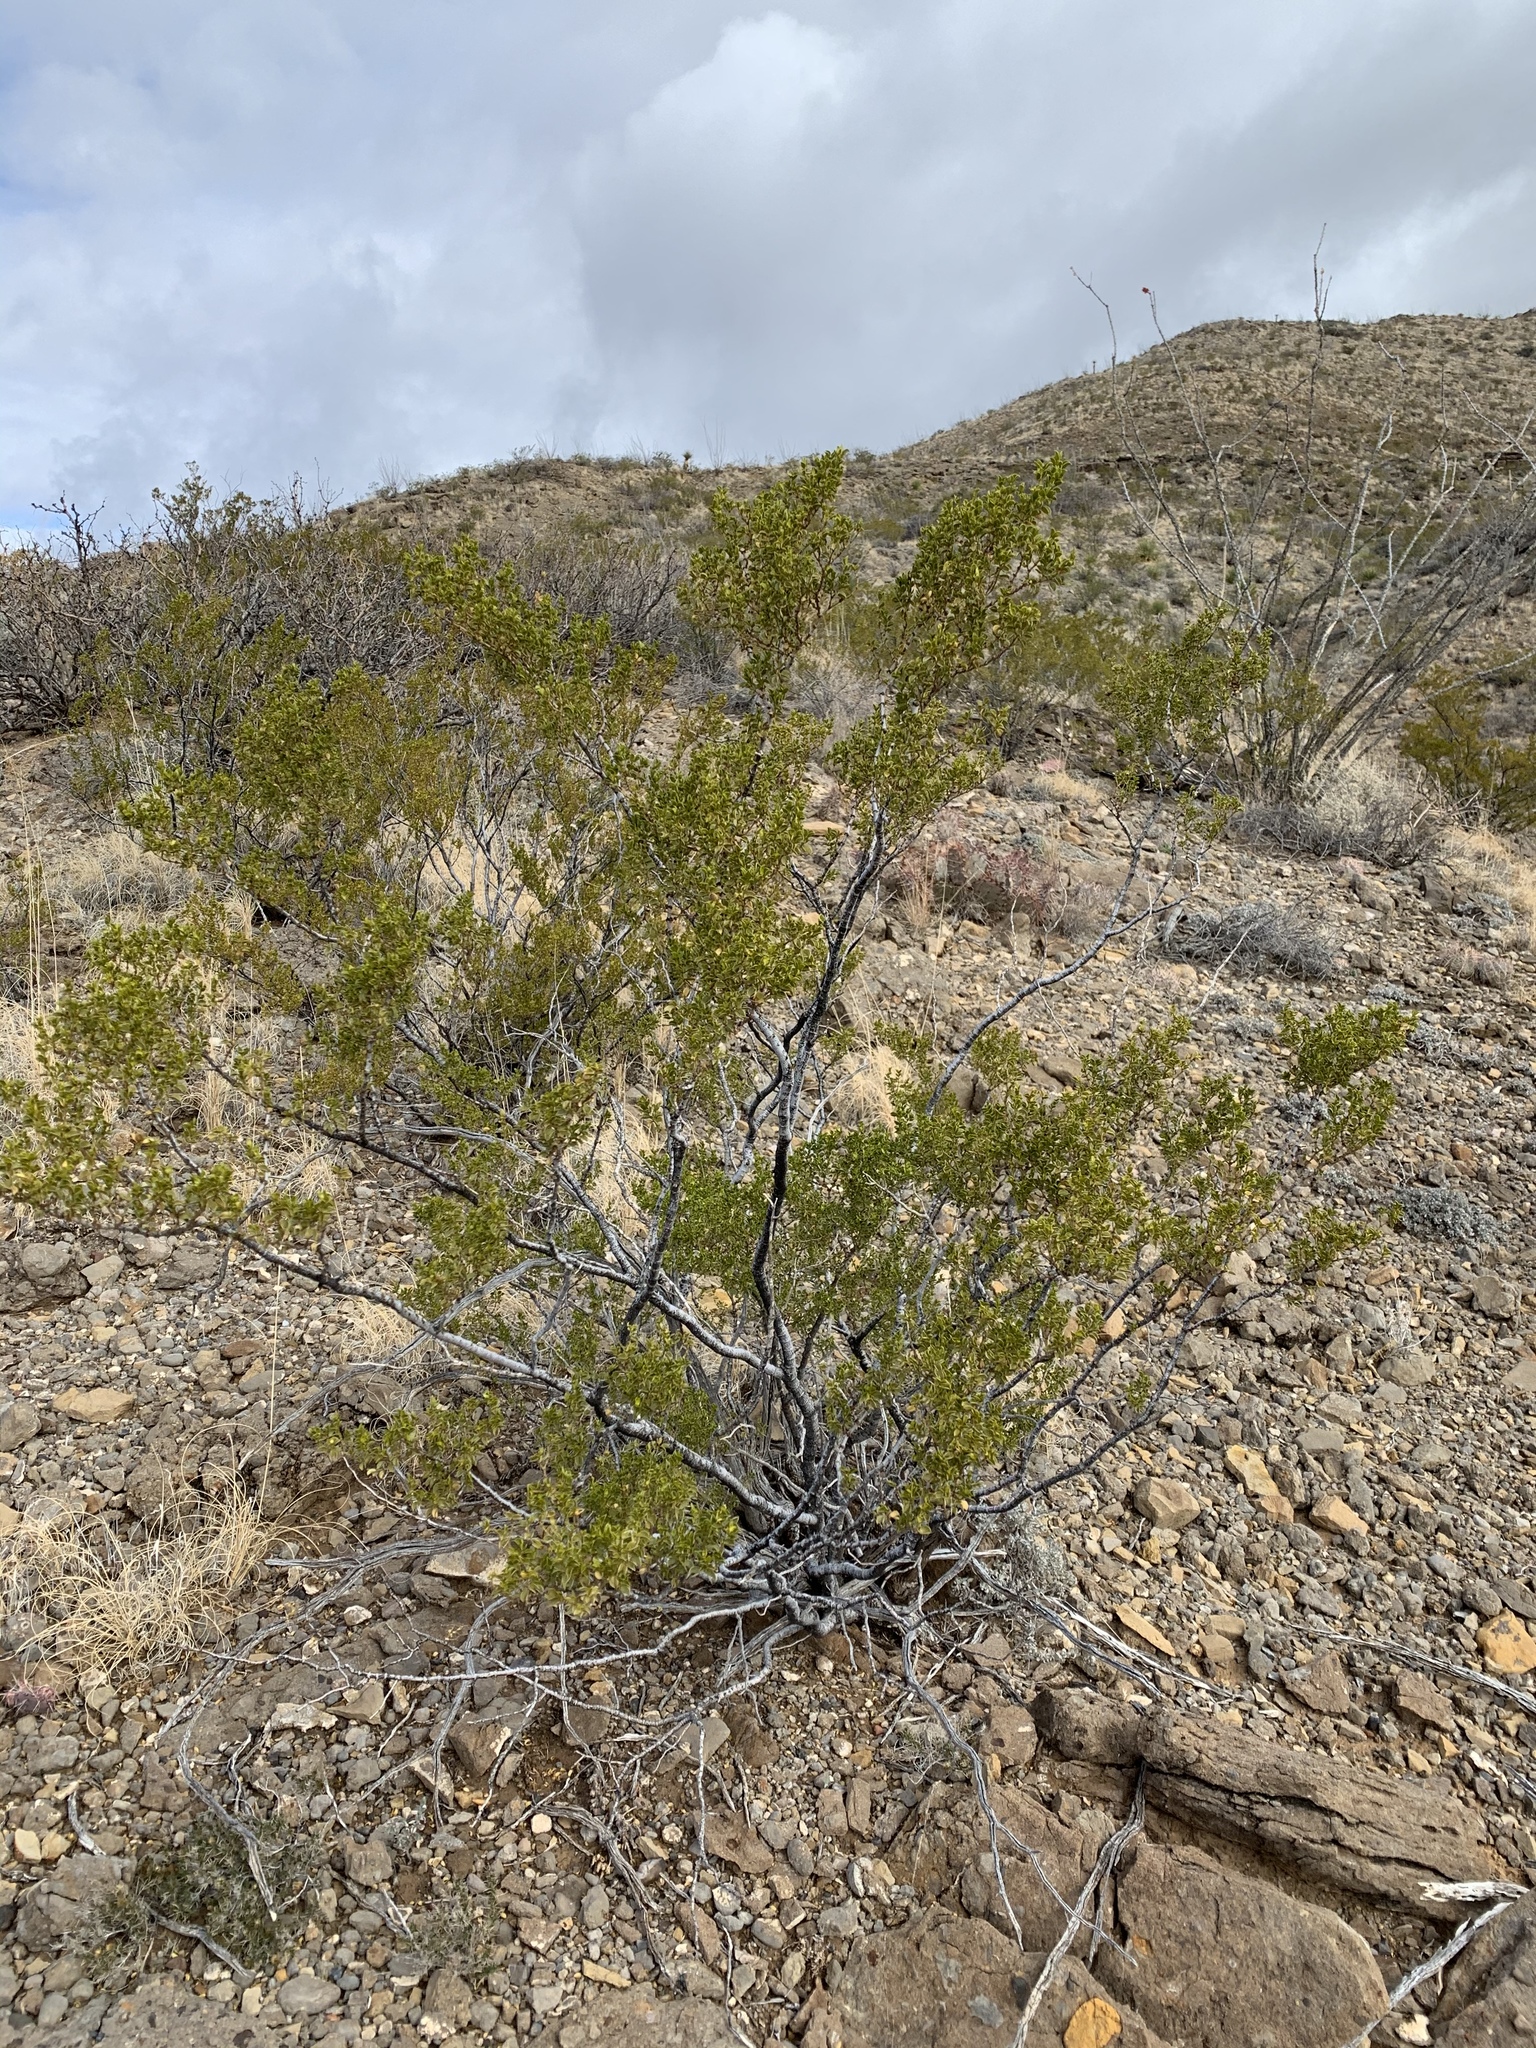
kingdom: Plantae
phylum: Tracheophyta
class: Magnoliopsida
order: Zygophyllales
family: Zygophyllaceae
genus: Larrea
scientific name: Larrea tridentata
